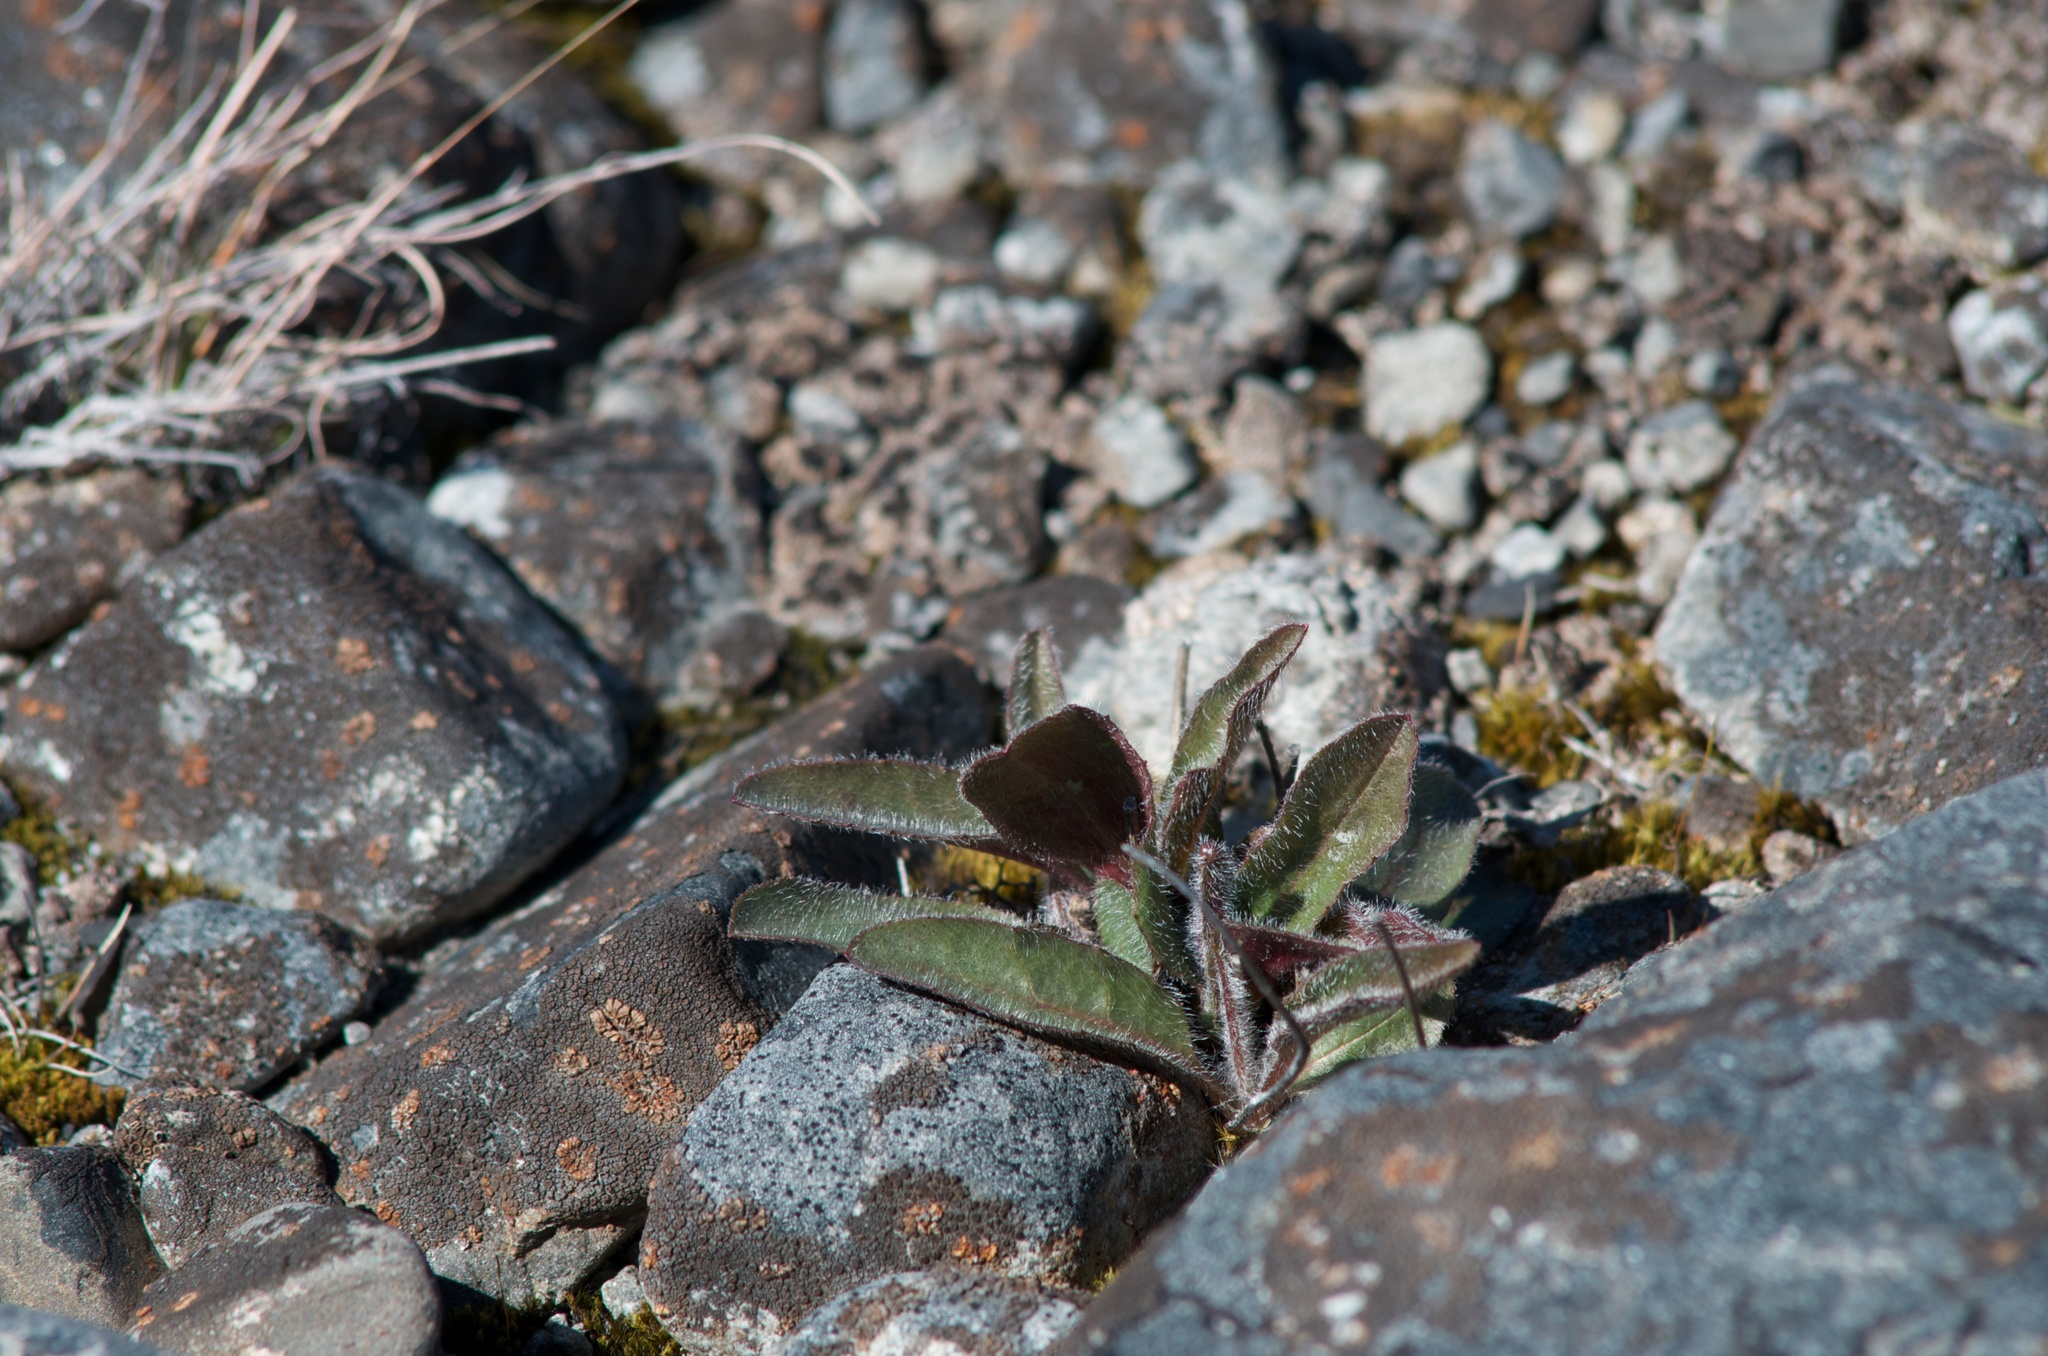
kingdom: Plantae
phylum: Tracheophyta
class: Magnoliopsida
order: Asterales
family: Asteraceae
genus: Hieracium
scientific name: Hieracium lepidulum
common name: Irregular-toothed hawkweed
